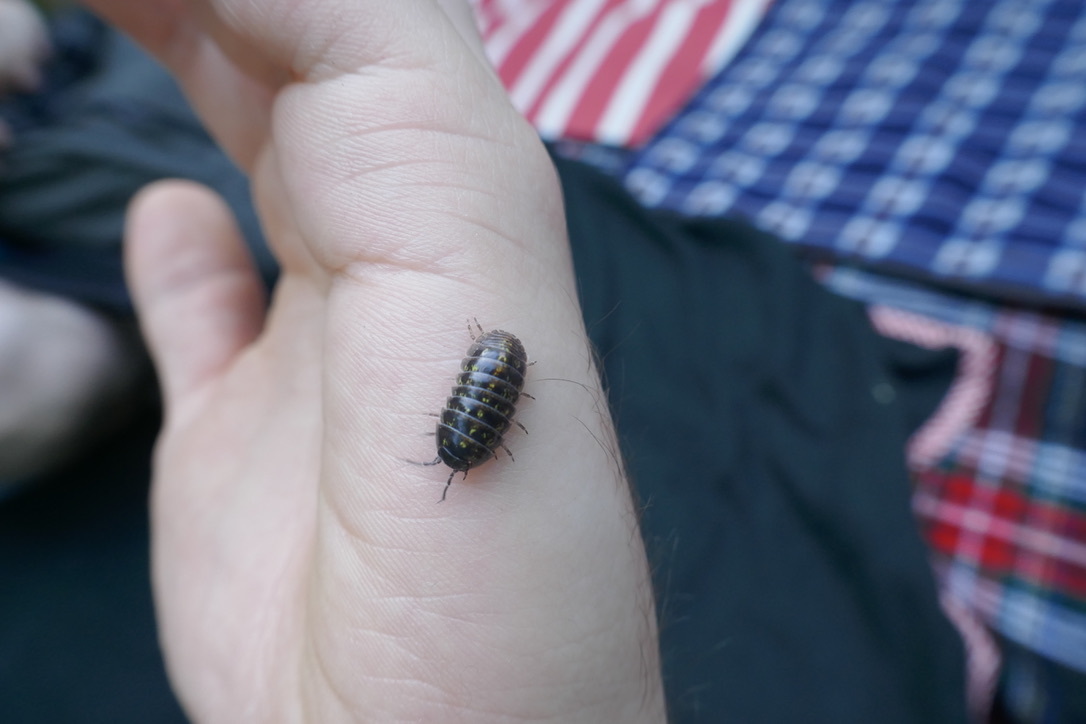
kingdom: Animalia
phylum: Arthropoda
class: Malacostraca
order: Isopoda
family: Armadillidiidae
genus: Armadillidium
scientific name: Armadillidium vulgare
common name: Common pill woodlouse
